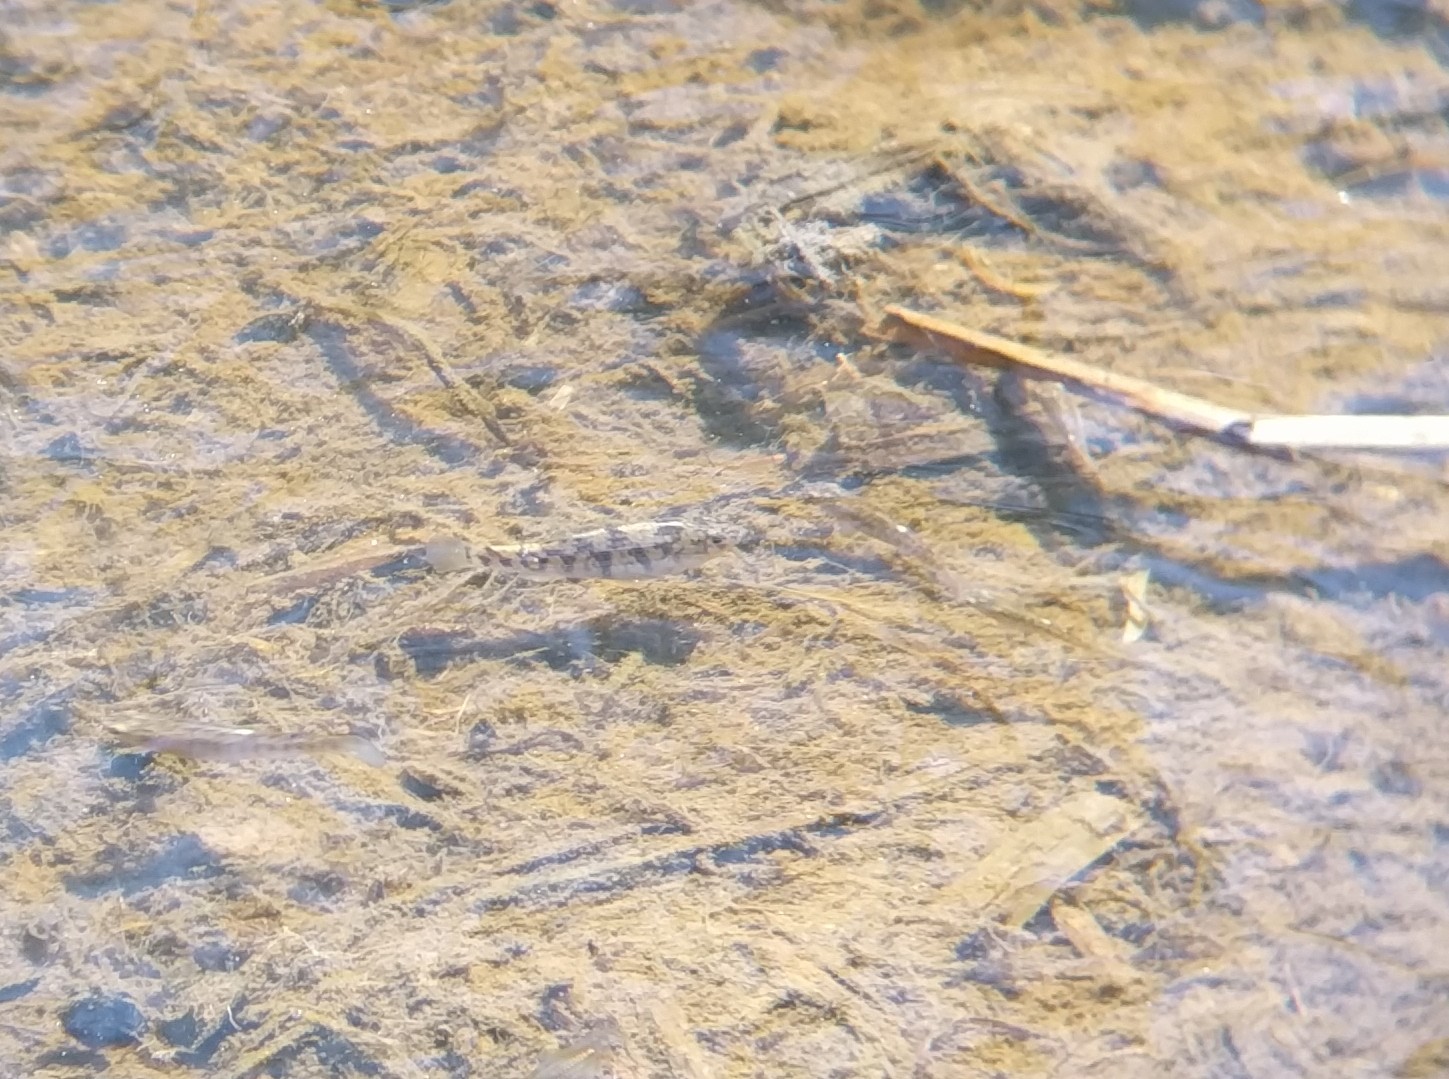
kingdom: Animalia
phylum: Chordata
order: Cyprinodontiformes
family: Cyprinodontidae
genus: Cyprinodon
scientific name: Cyprinodon variegatus
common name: Sheepshead minnow
